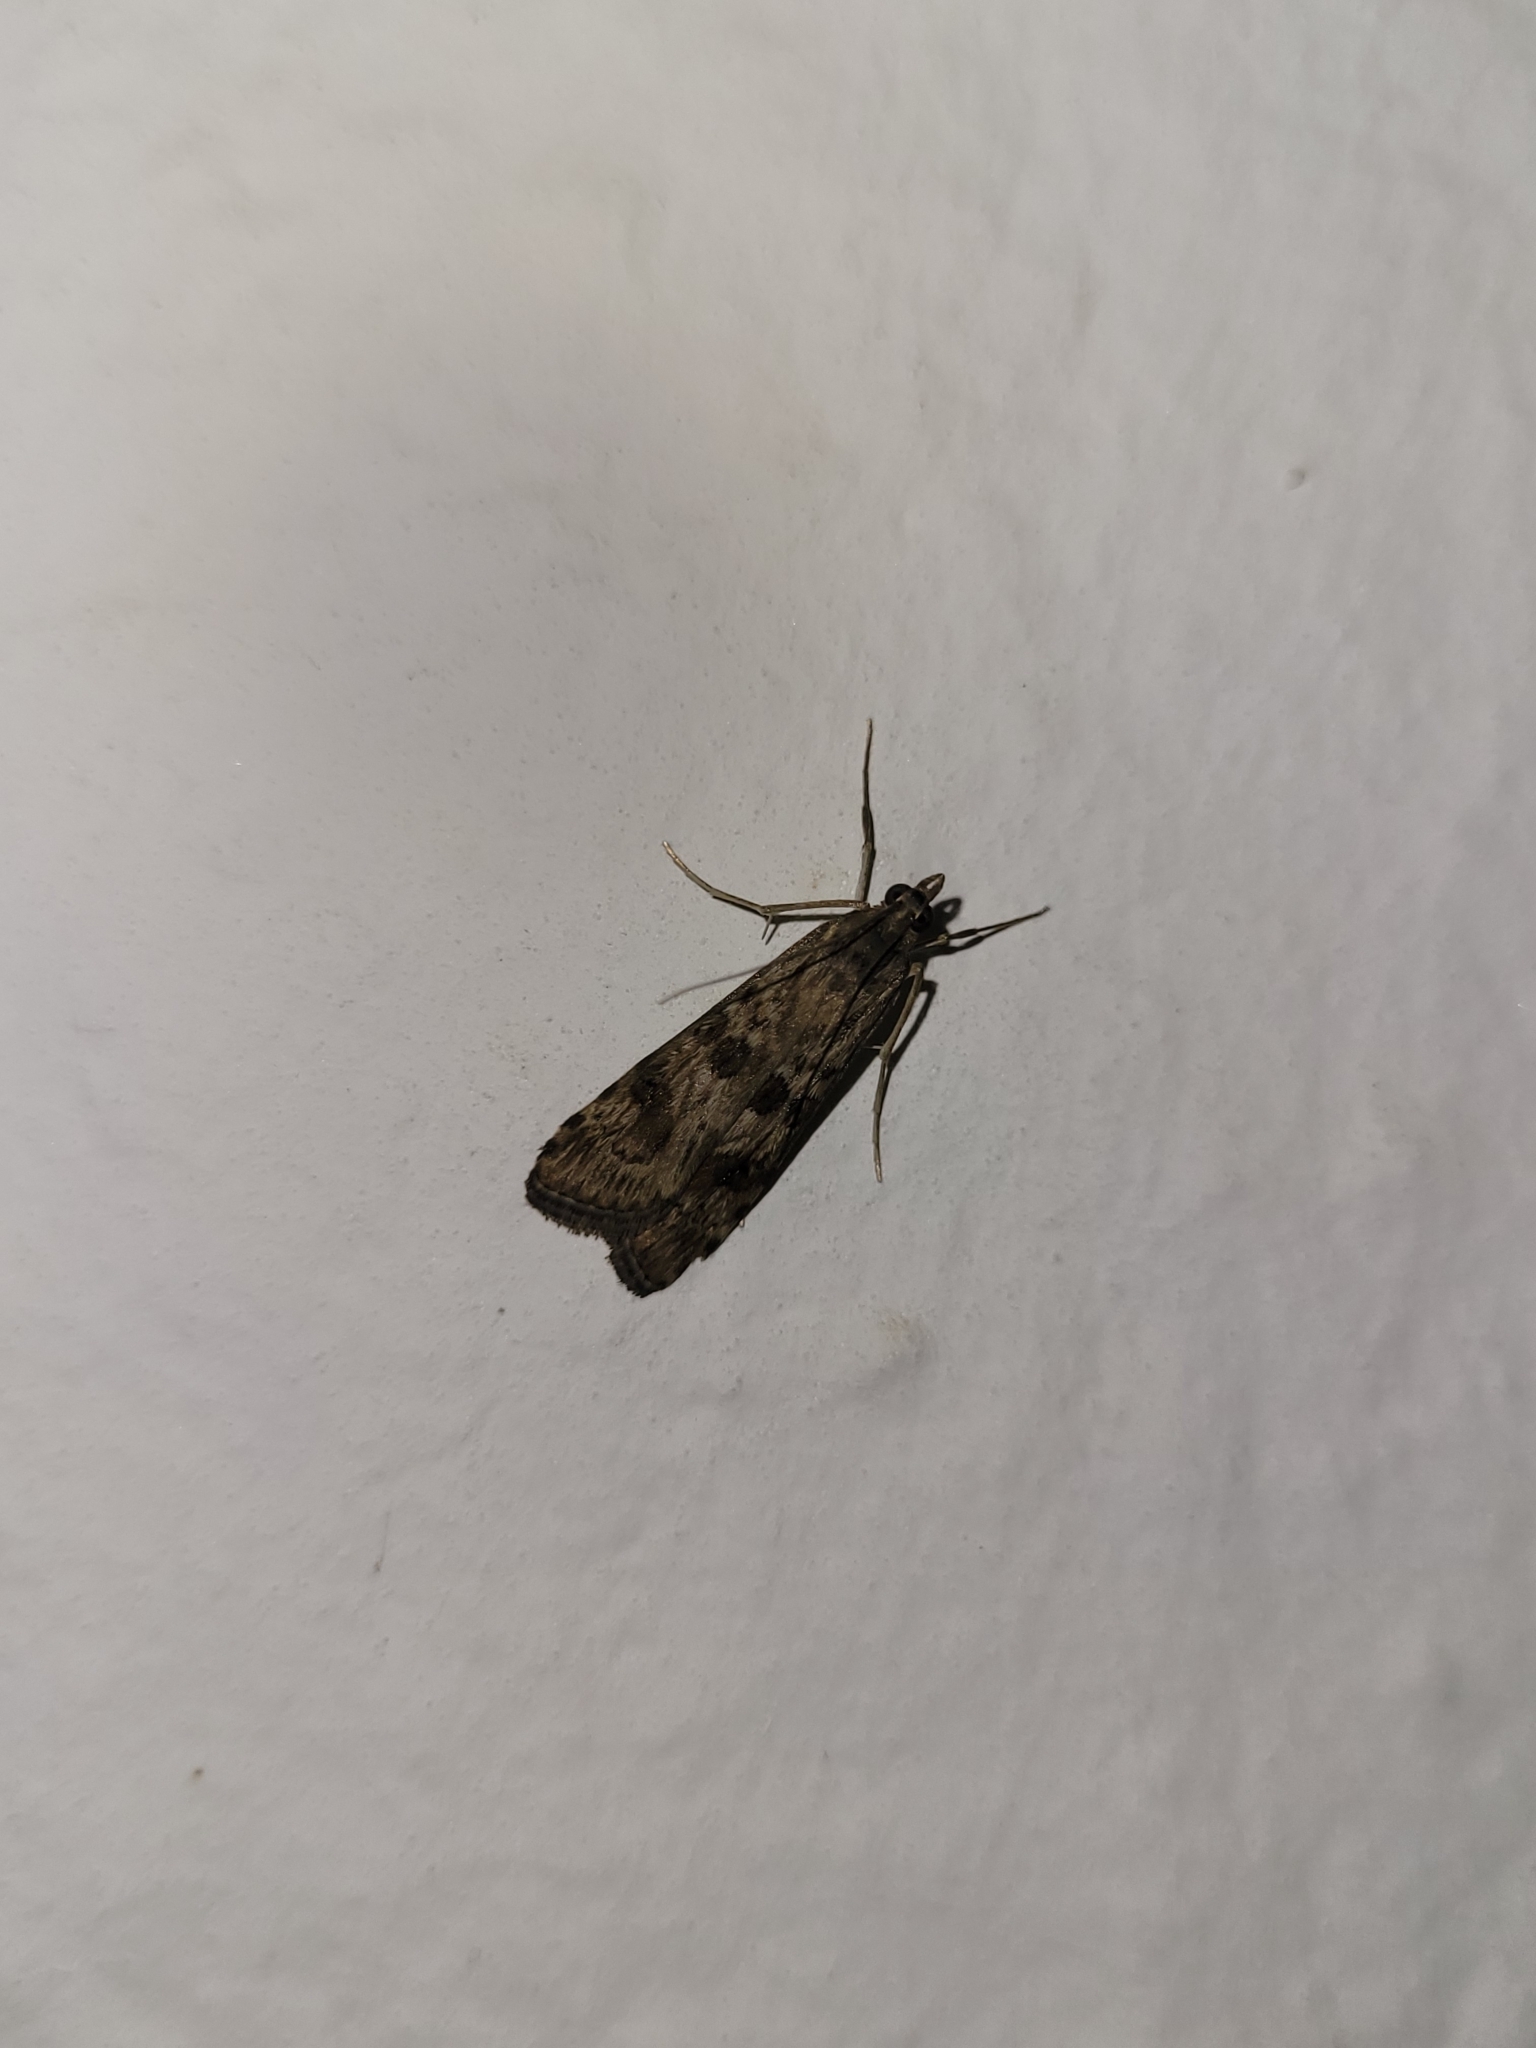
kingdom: Animalia
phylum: Arthropoda
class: Insecta
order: Lepidoptera
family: Crambidae
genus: Nomophila
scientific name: Nomophila noctuella
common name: Rush veneer
